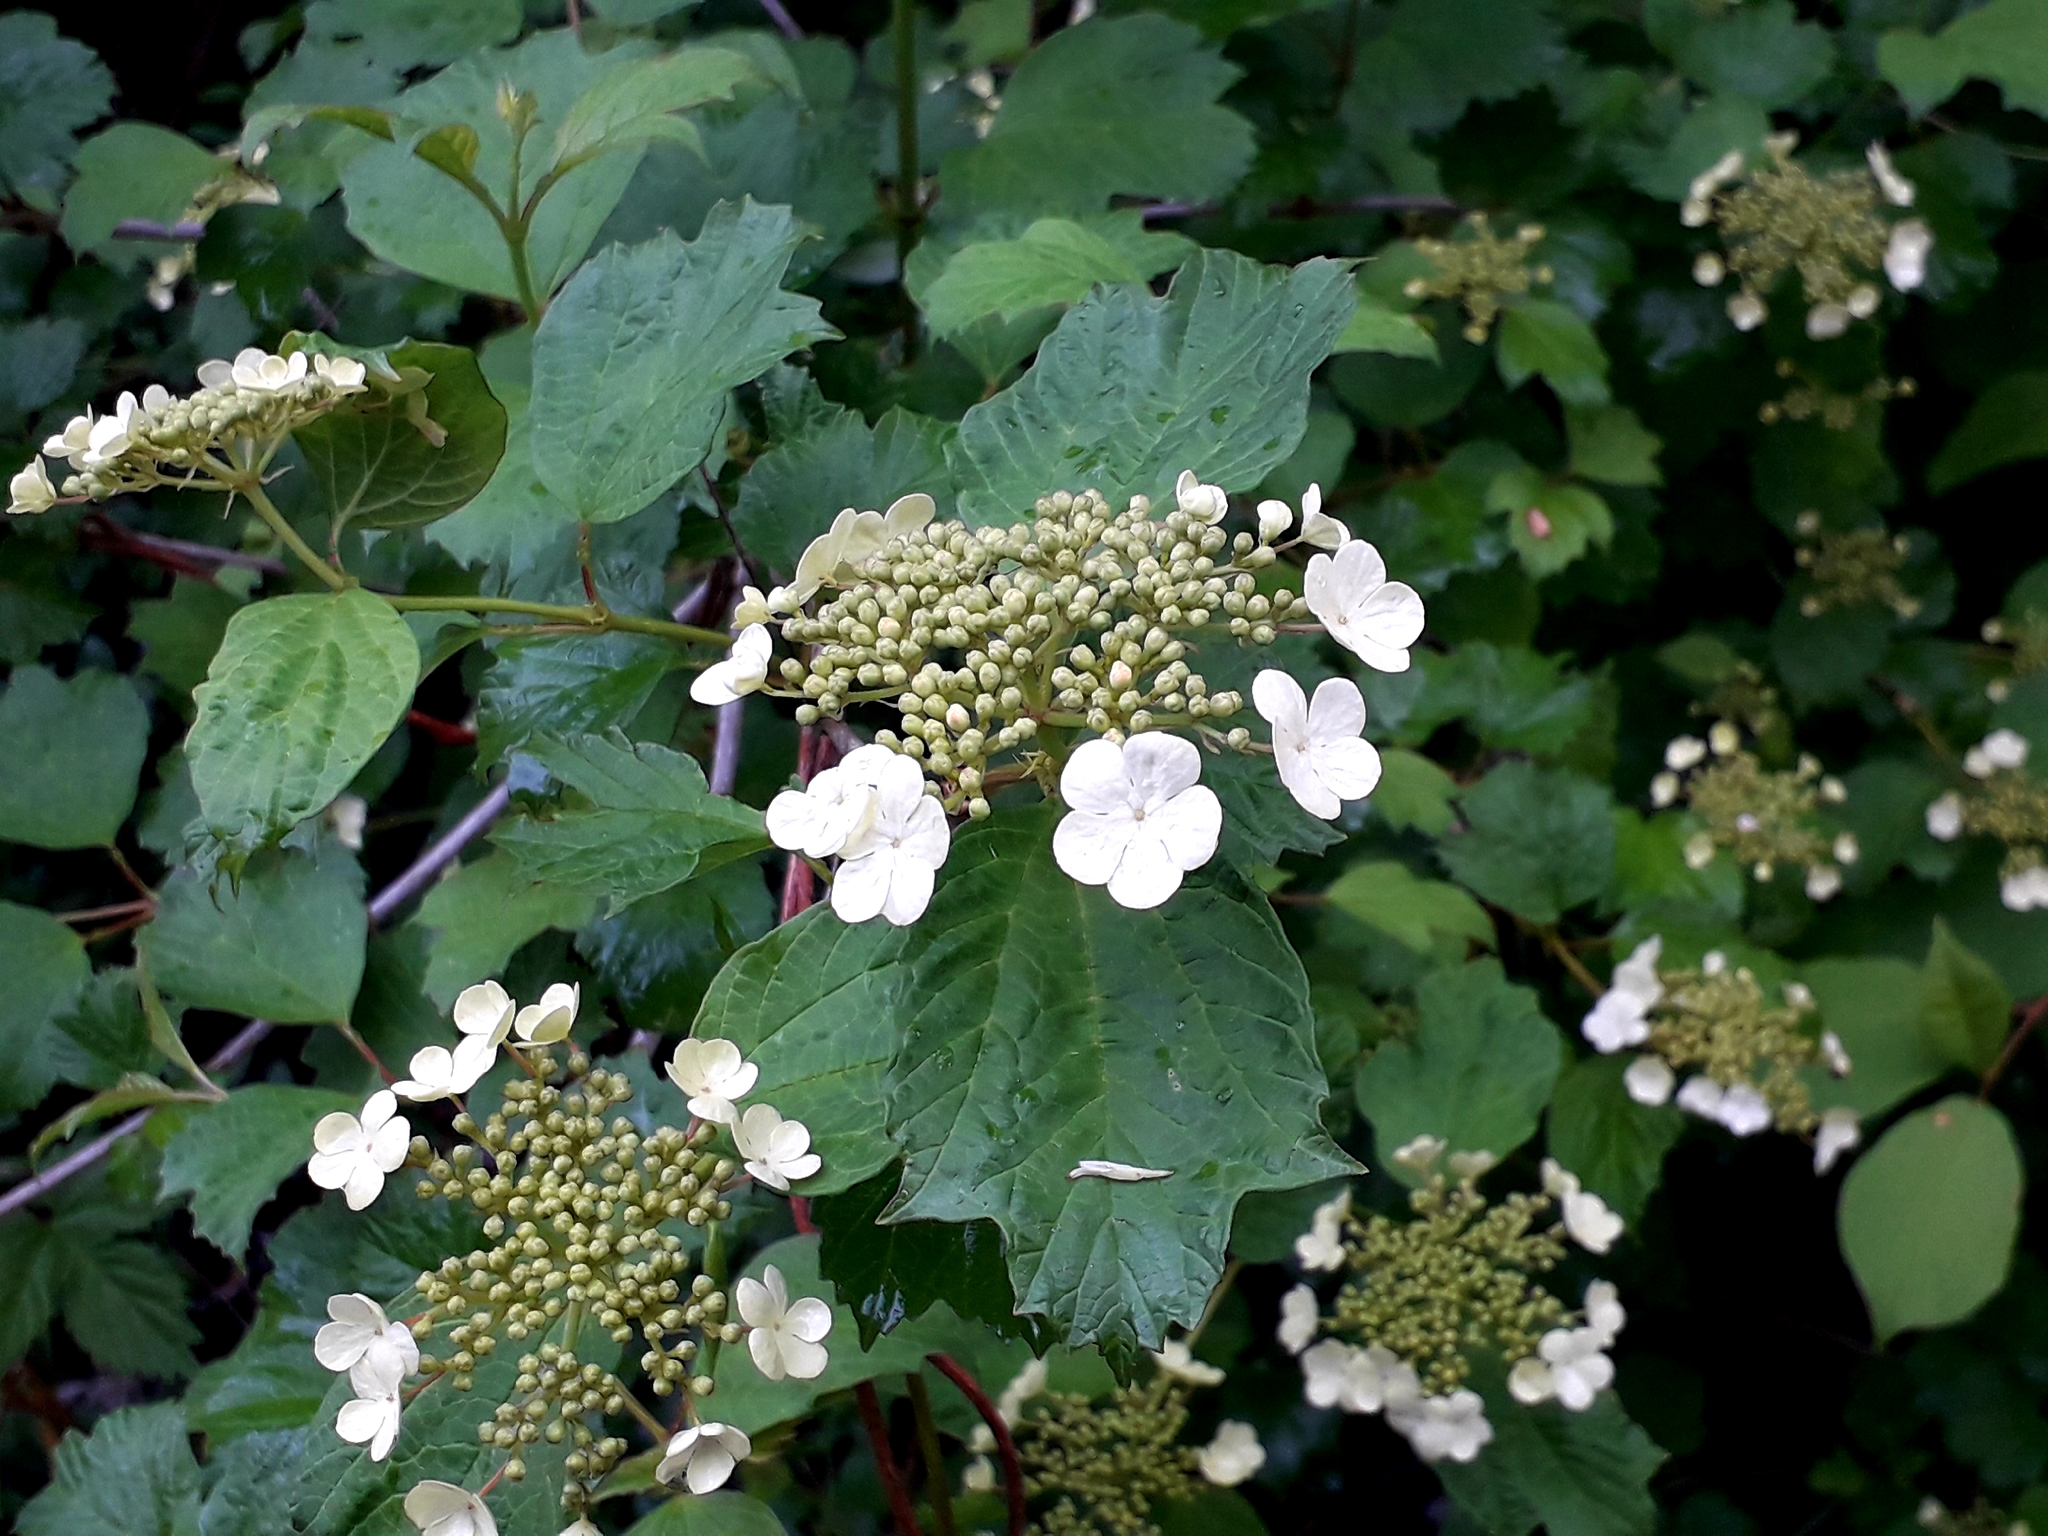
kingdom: Plantae
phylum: Tracheophyta
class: Magnoliopsida
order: Dipsacales
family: Viburnaceae
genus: Viburnum
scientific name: Viburnum opulus
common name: Guelder-rose
